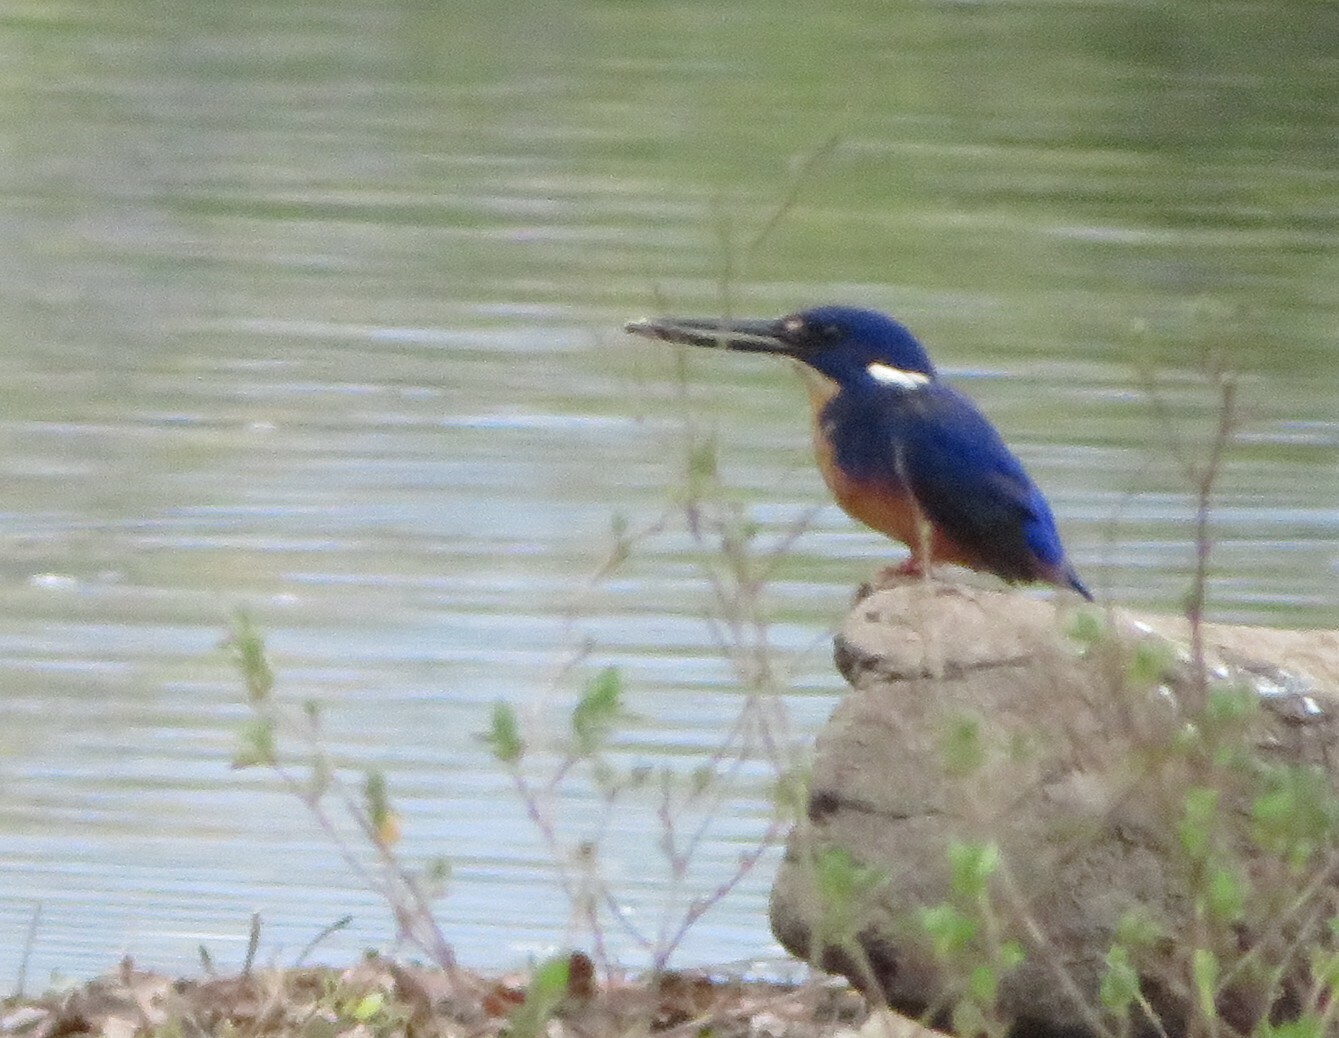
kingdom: Animalia
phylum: Chordata
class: Aves
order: Coraciiformes
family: Alcedinidae
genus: Ceyx
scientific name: Ceyx azureus
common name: Azure kingfisher
